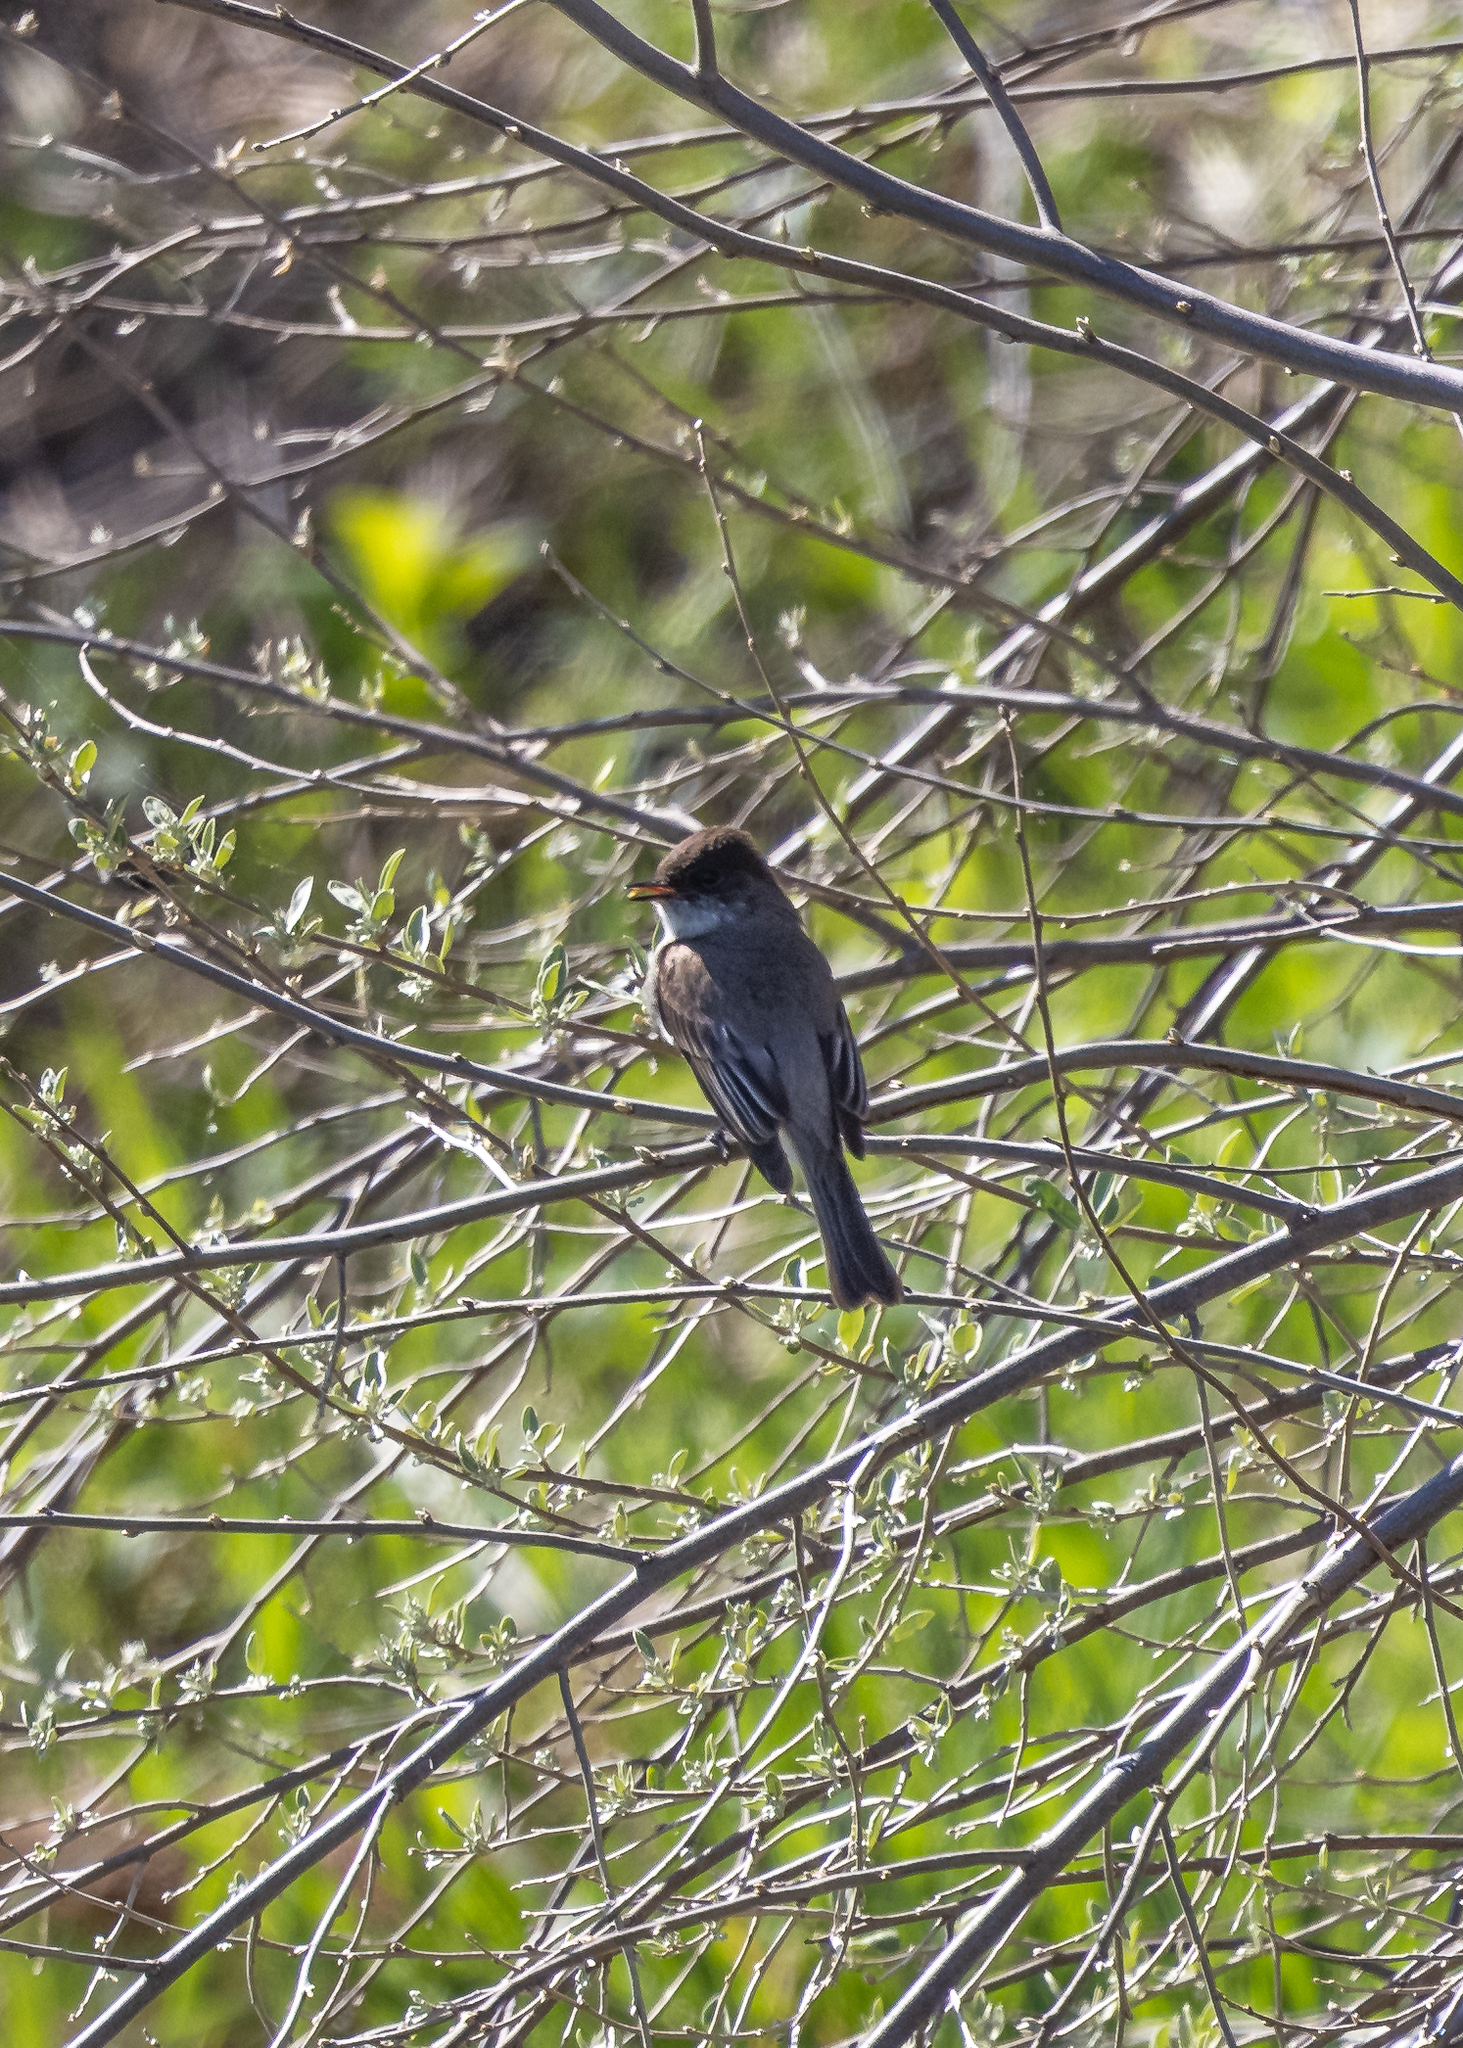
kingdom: Animalia
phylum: Chordata
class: Aves
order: Passeriformes
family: Tyrannidae
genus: Sayornis
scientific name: Sayornis phoebe
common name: Eastern phoebe
